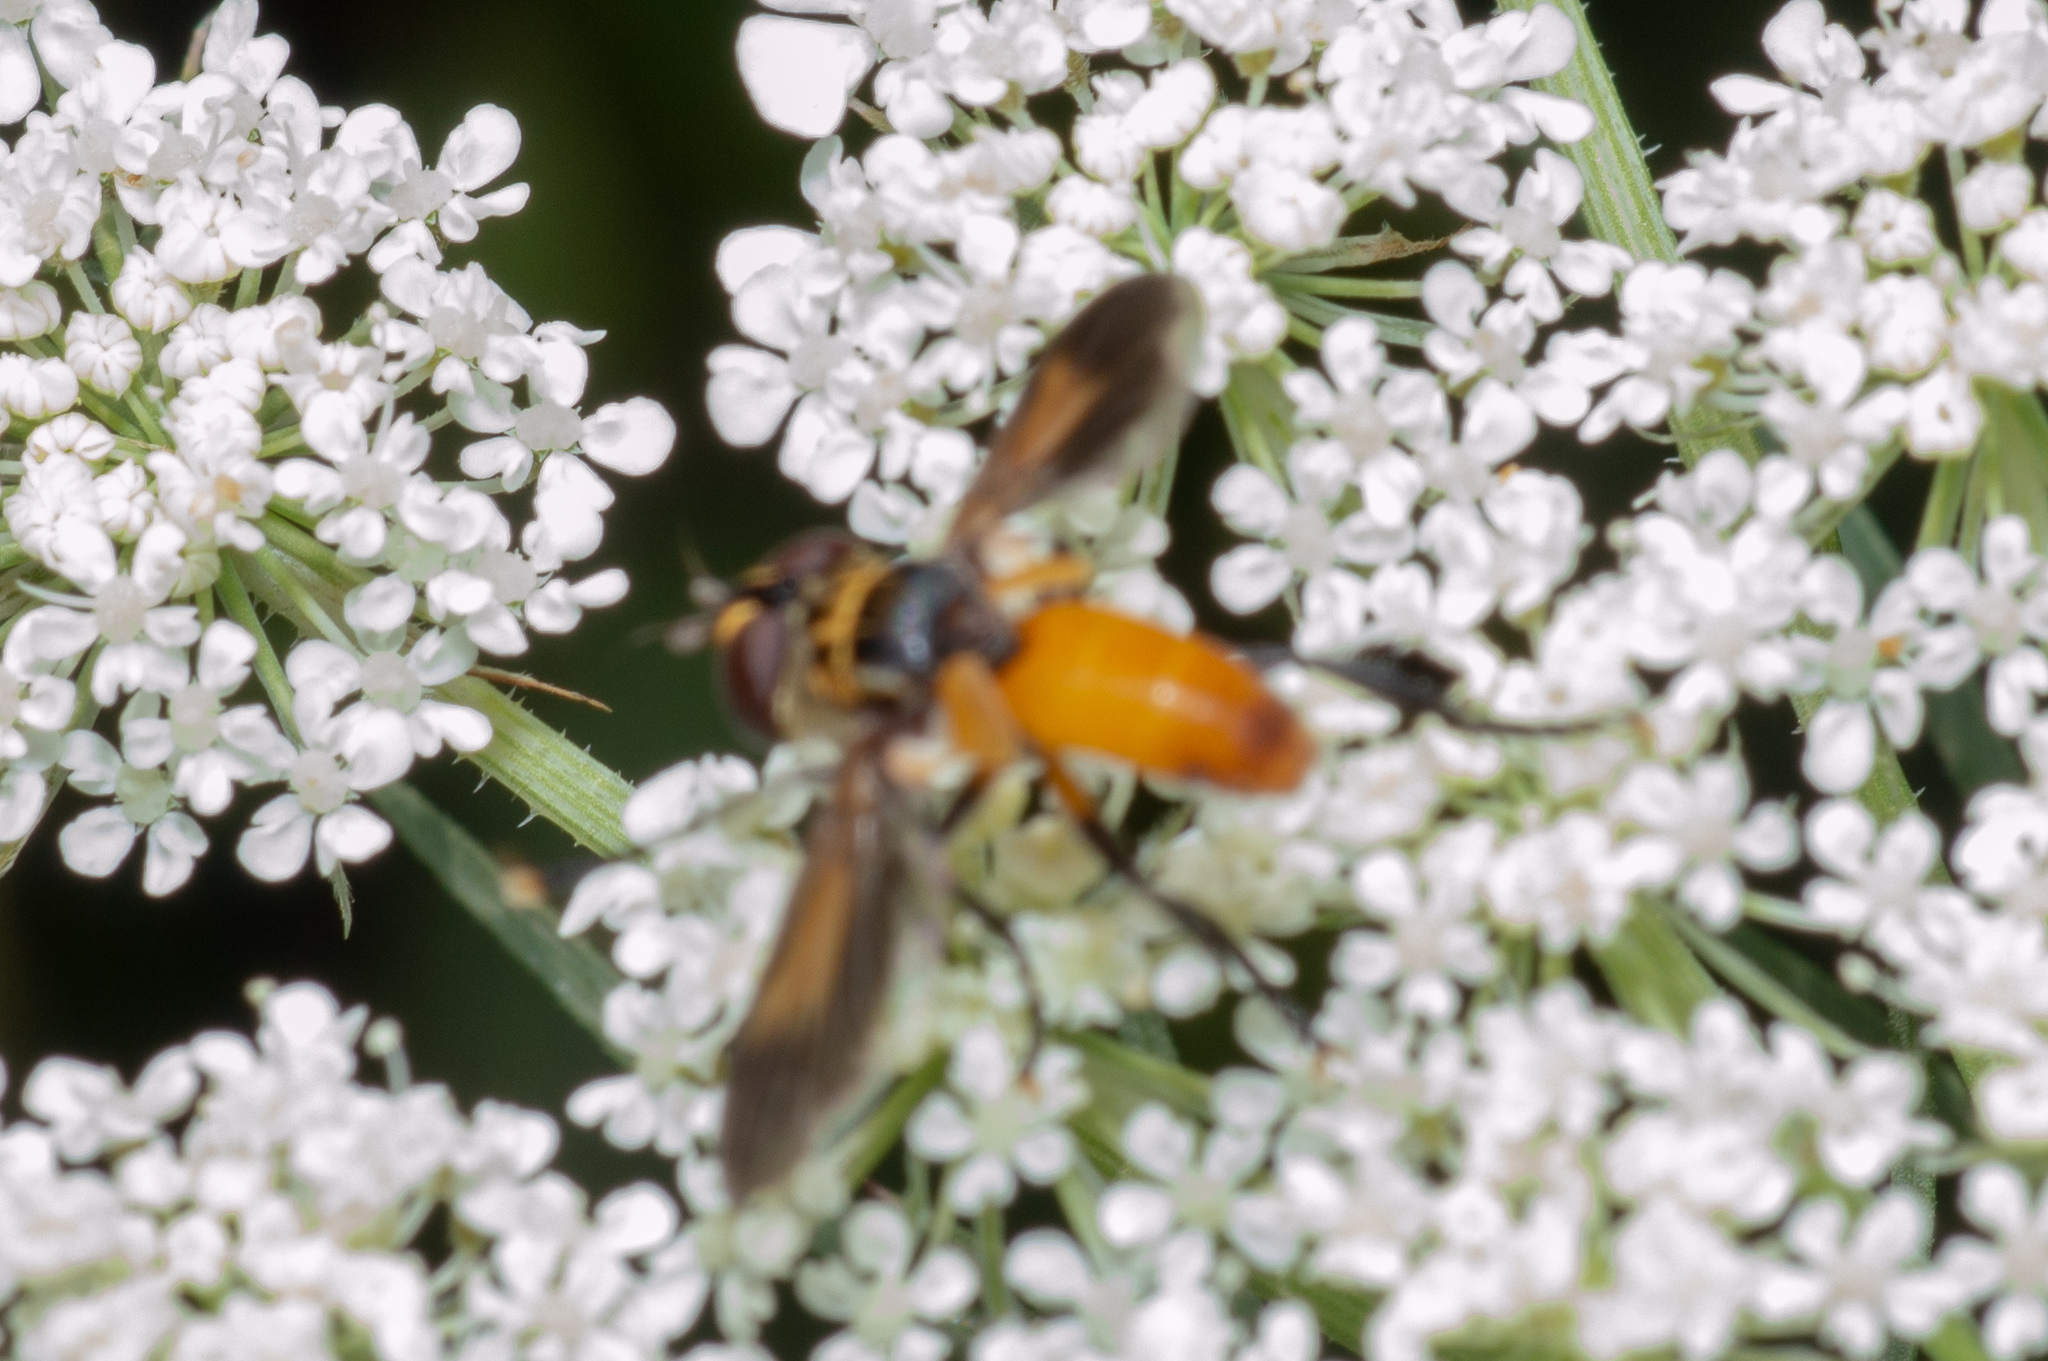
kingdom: Animalia
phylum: Arthropoda
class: Insecta
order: Diptera
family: Tachinidae
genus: Trichopoda
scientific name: Trichopoda pennipes
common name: Tachinid fly
